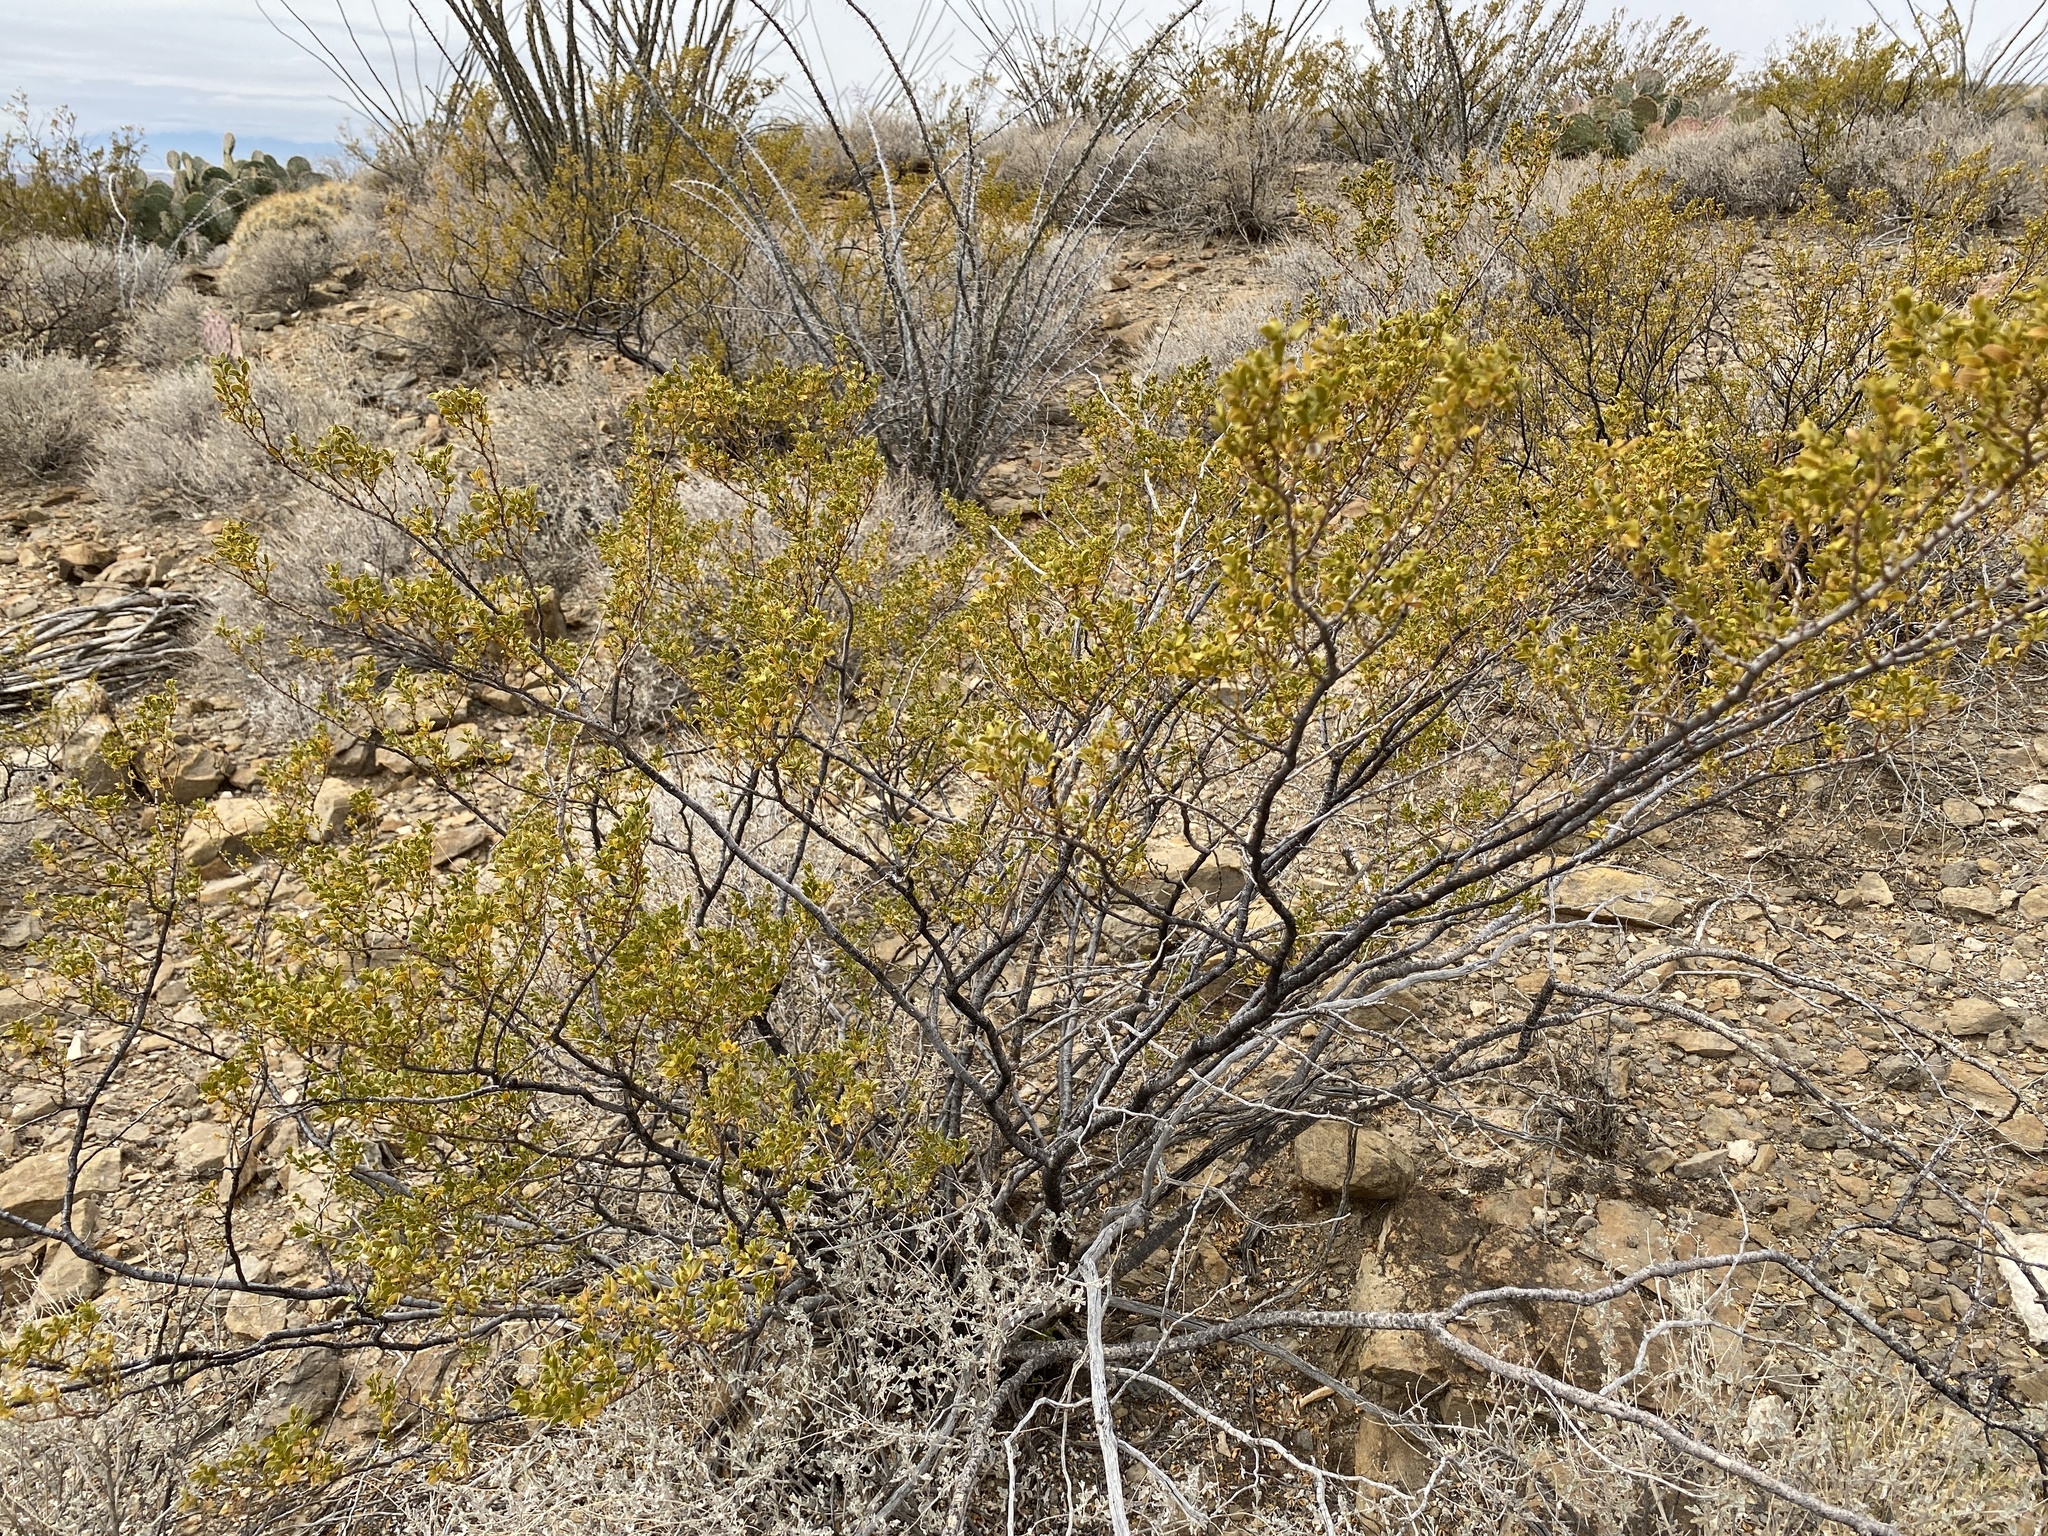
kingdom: Plantae
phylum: Tracheophyta
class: Magnoliopsida
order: Zygophyllales
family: Zygophyllaceae
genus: Larrea
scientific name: Larrea tridentata
